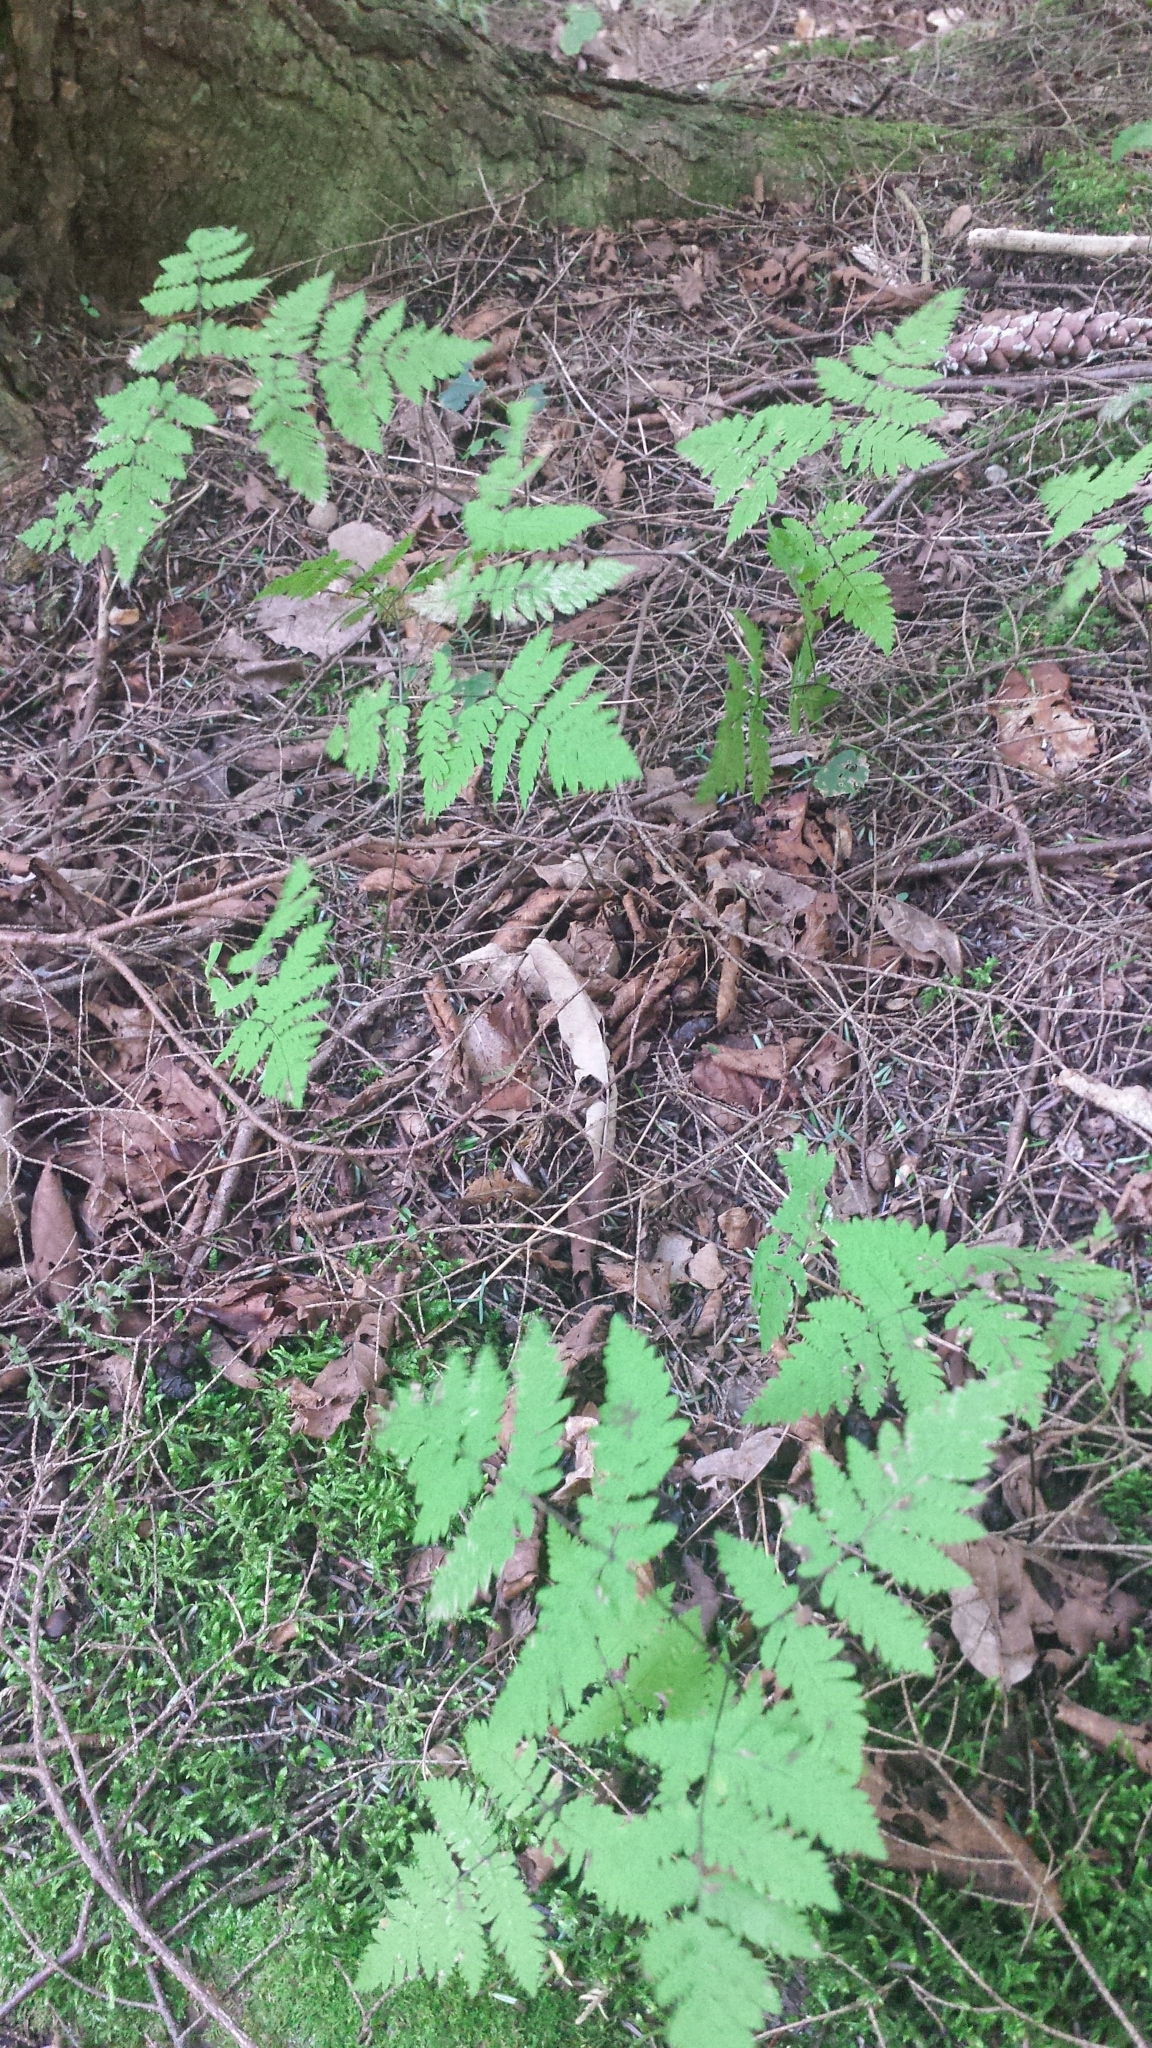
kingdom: Plantae
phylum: Tracheophyta
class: Polypodiopsida
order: Polypodiales
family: Cystopteridaceae
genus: Gymnocarpium
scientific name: Gymnocarpium dryopteris
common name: Oak fern
